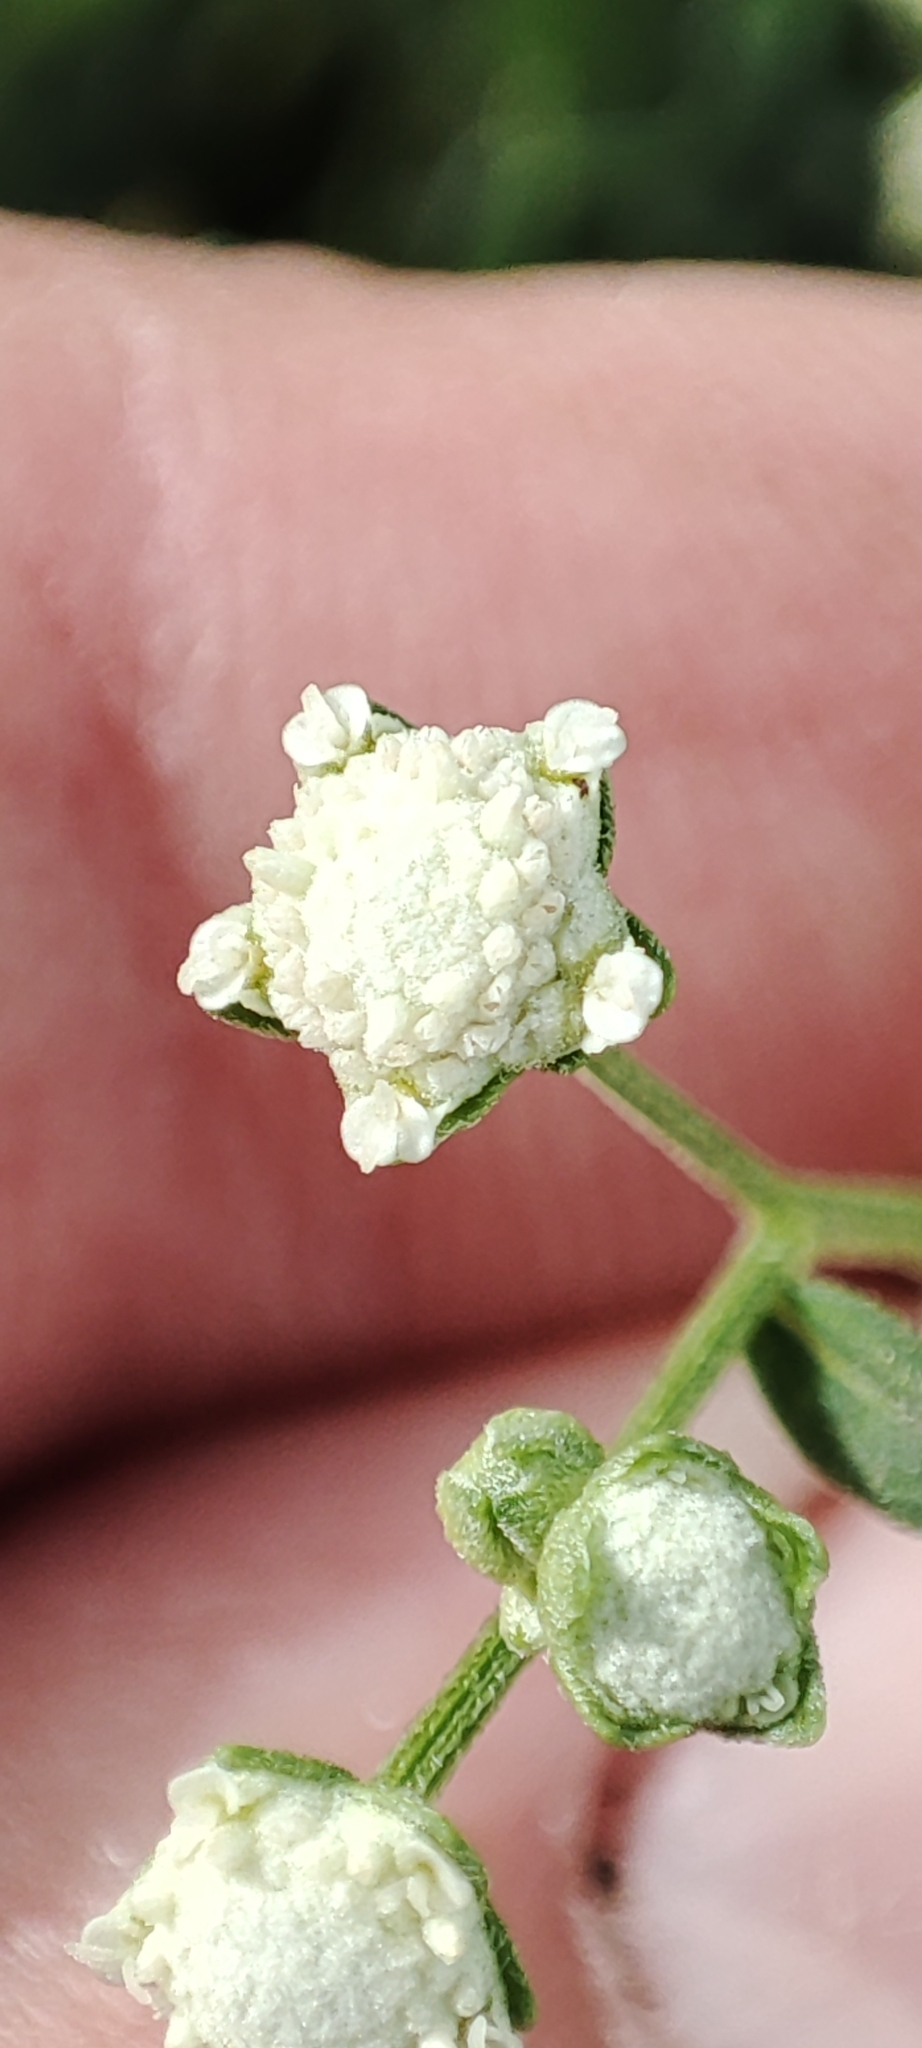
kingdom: Plantae
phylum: Tracheophyta
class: Magnoliopsida
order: Asterales
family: Asteraceae
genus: Parthenium
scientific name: Parthenium hysterophorus
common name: Santa maria feverfew
